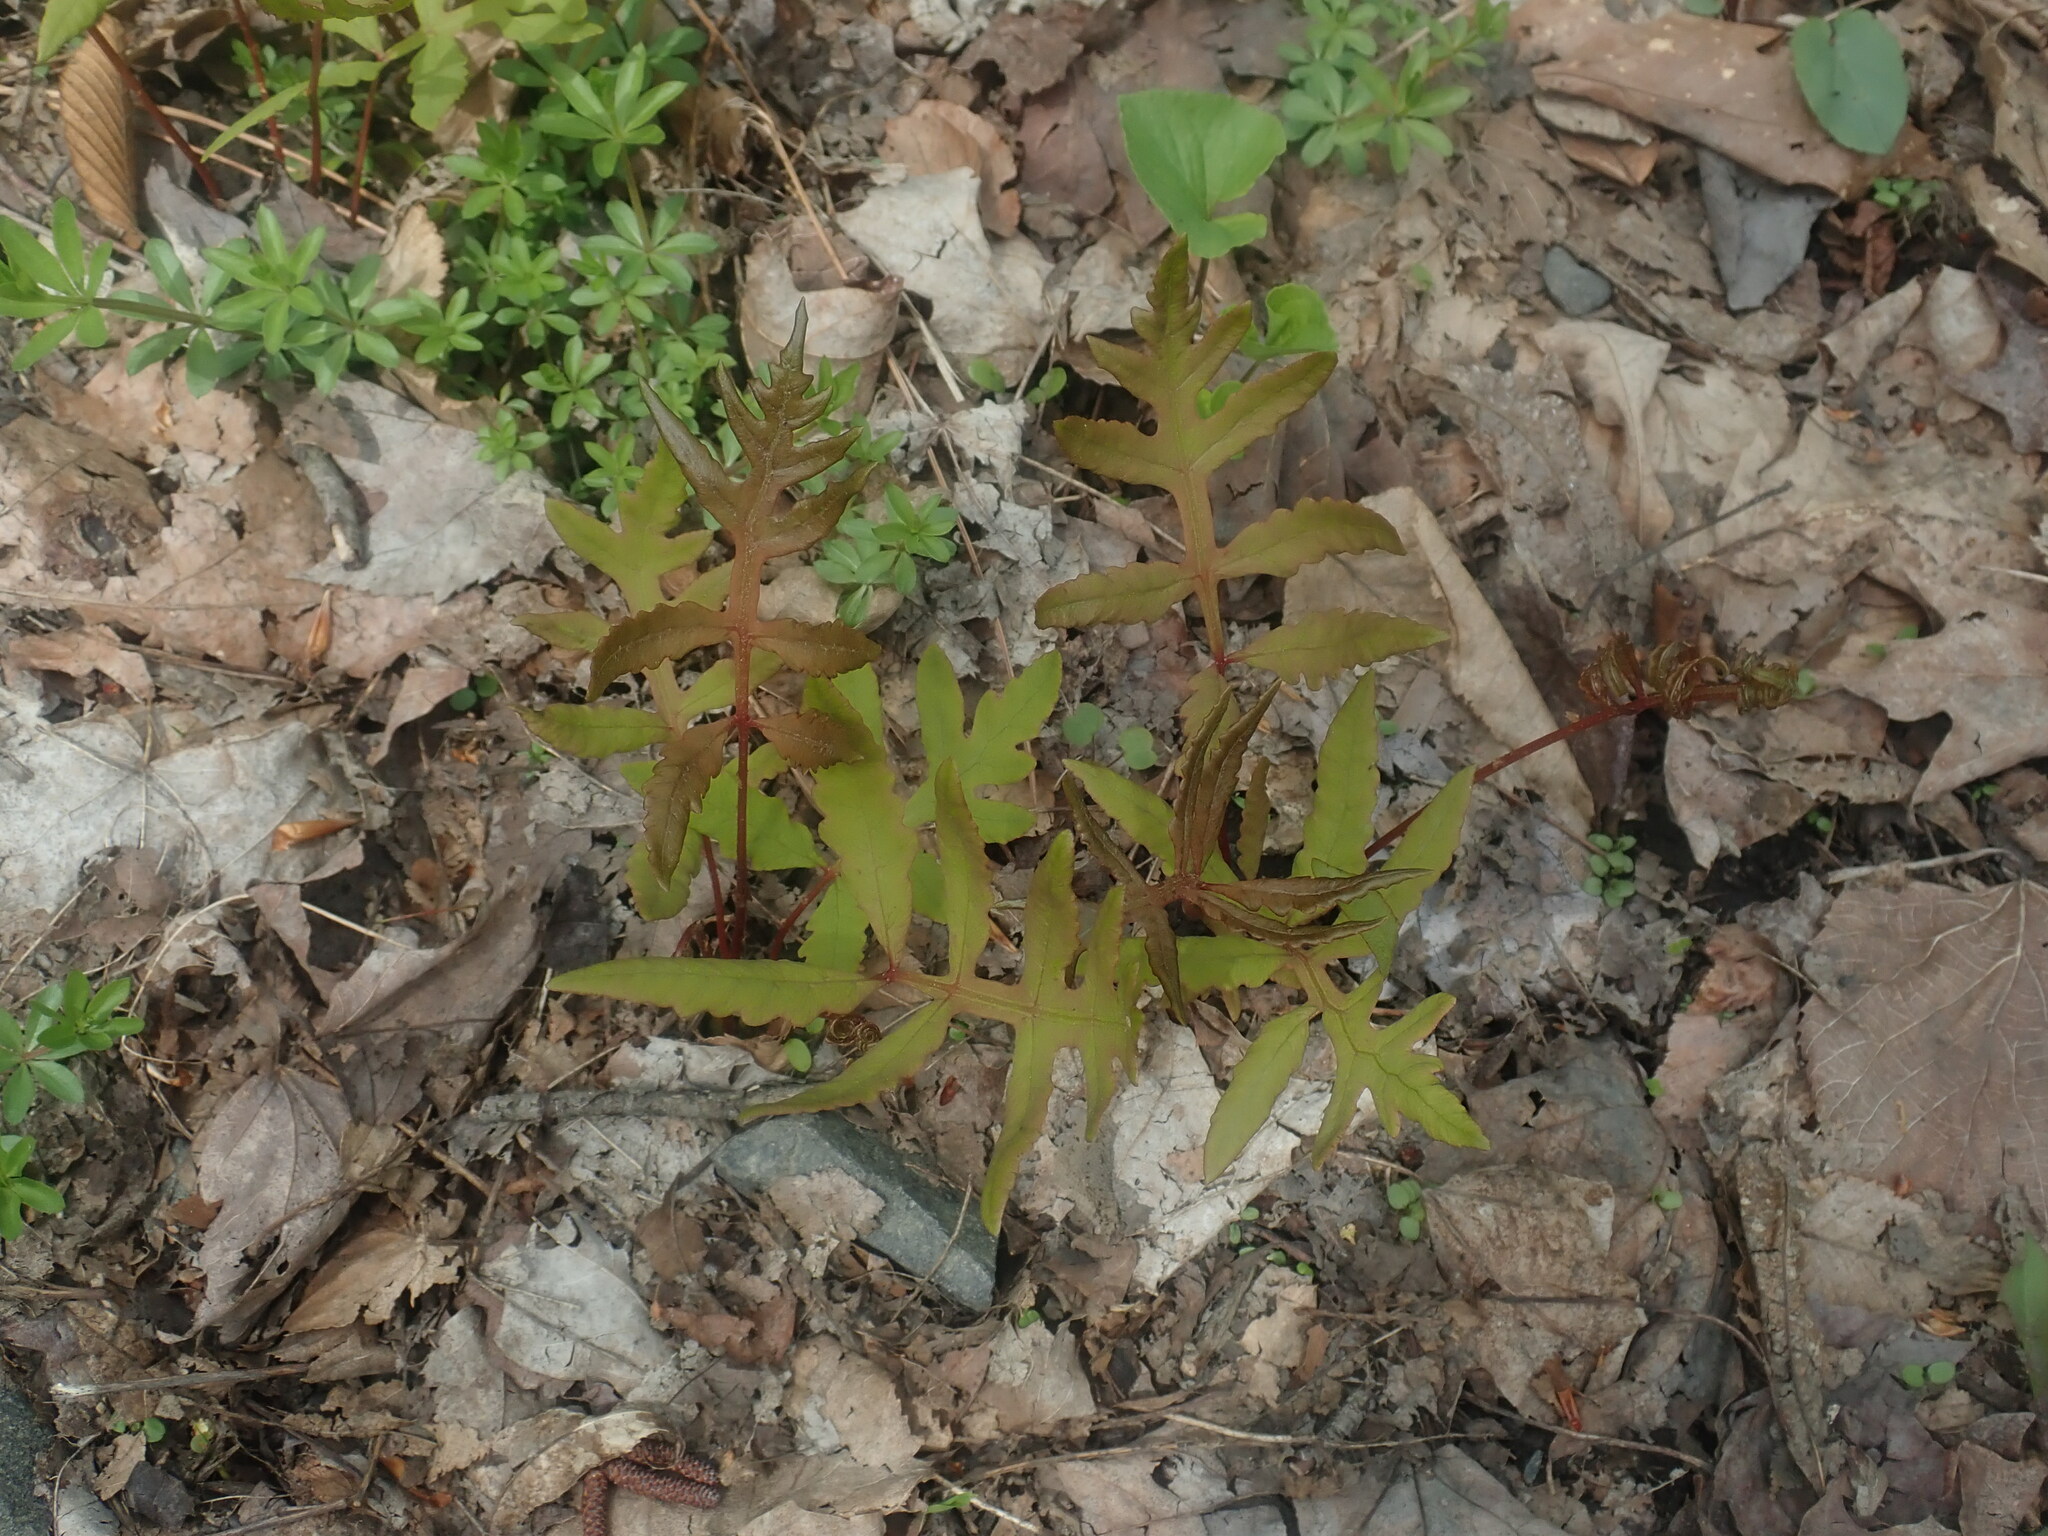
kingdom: Plantae
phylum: Tracheophyta
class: Polypodiopsida
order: Polypodiales
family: Onocleaceae
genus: Onoclea
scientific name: Onoclea sensibilis
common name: Sensitive fern
